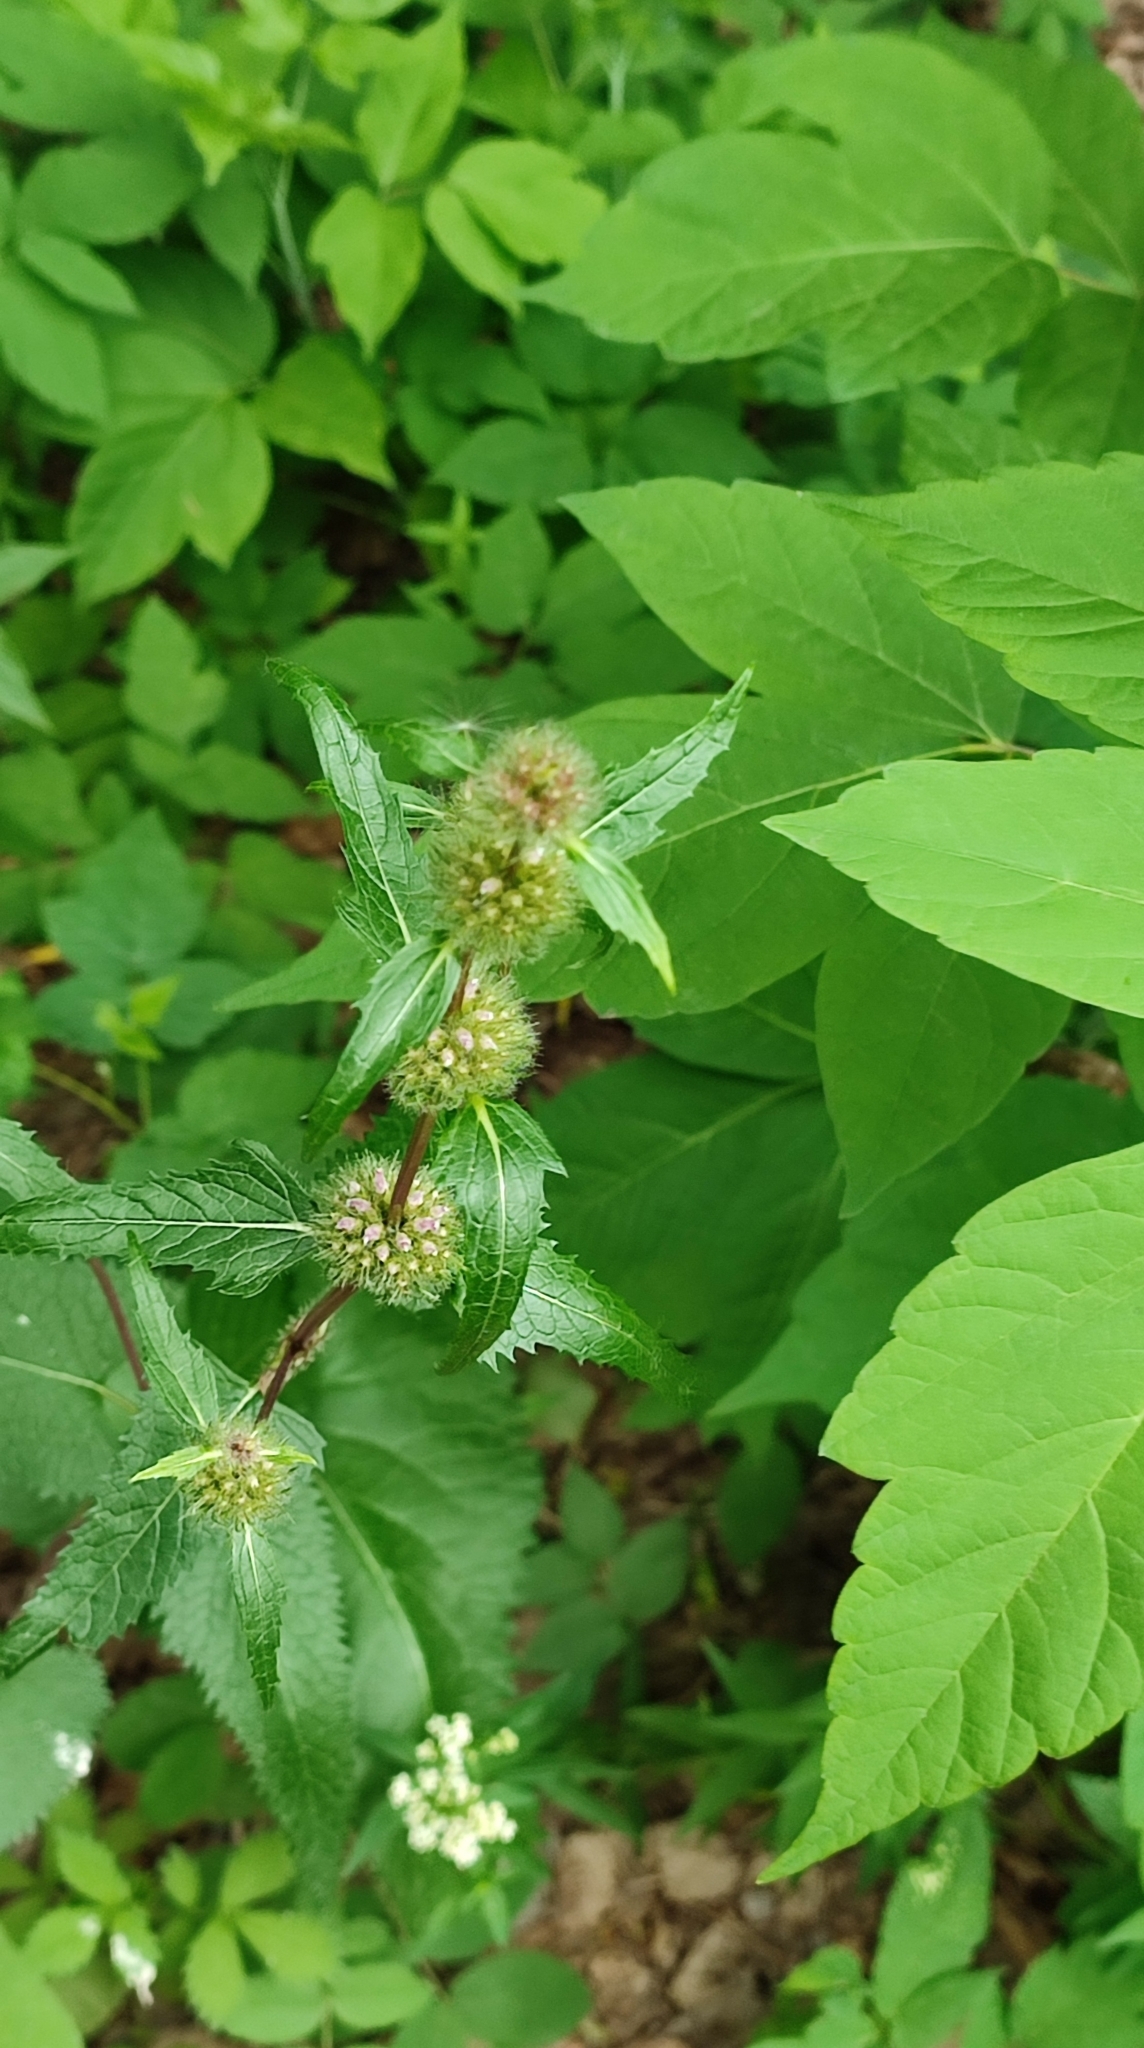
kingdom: Plantae
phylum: Tracheophyta
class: Magnoliopsida
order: Lamiales
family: Lamiaceae
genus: Phlomoides
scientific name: Phlomoides tuberosa
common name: Tuberous jerusalem sage
